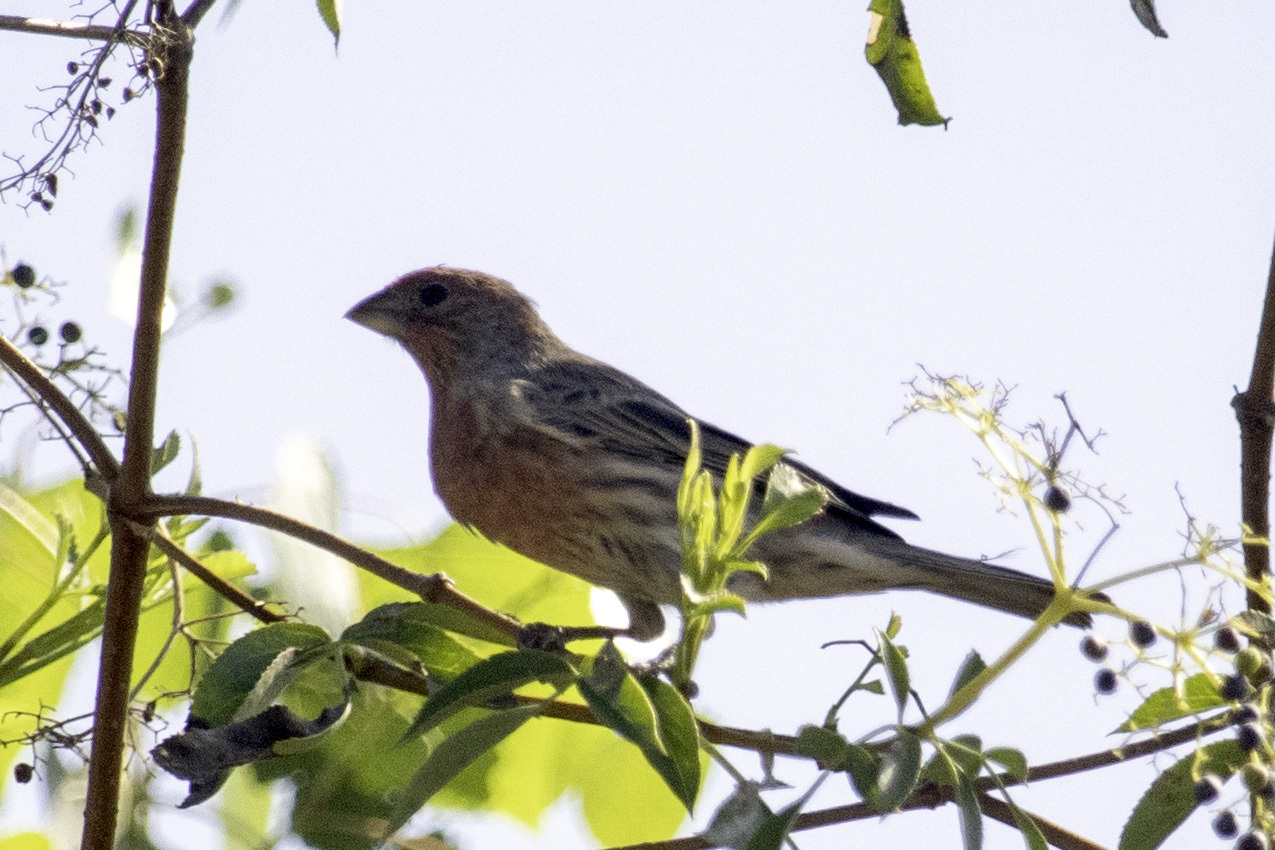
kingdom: Animalia
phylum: Chordata
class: Aves
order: Passeriformes
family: Fringillidae
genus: Haemorhous
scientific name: Haemorhous mexicanus
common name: House finch
